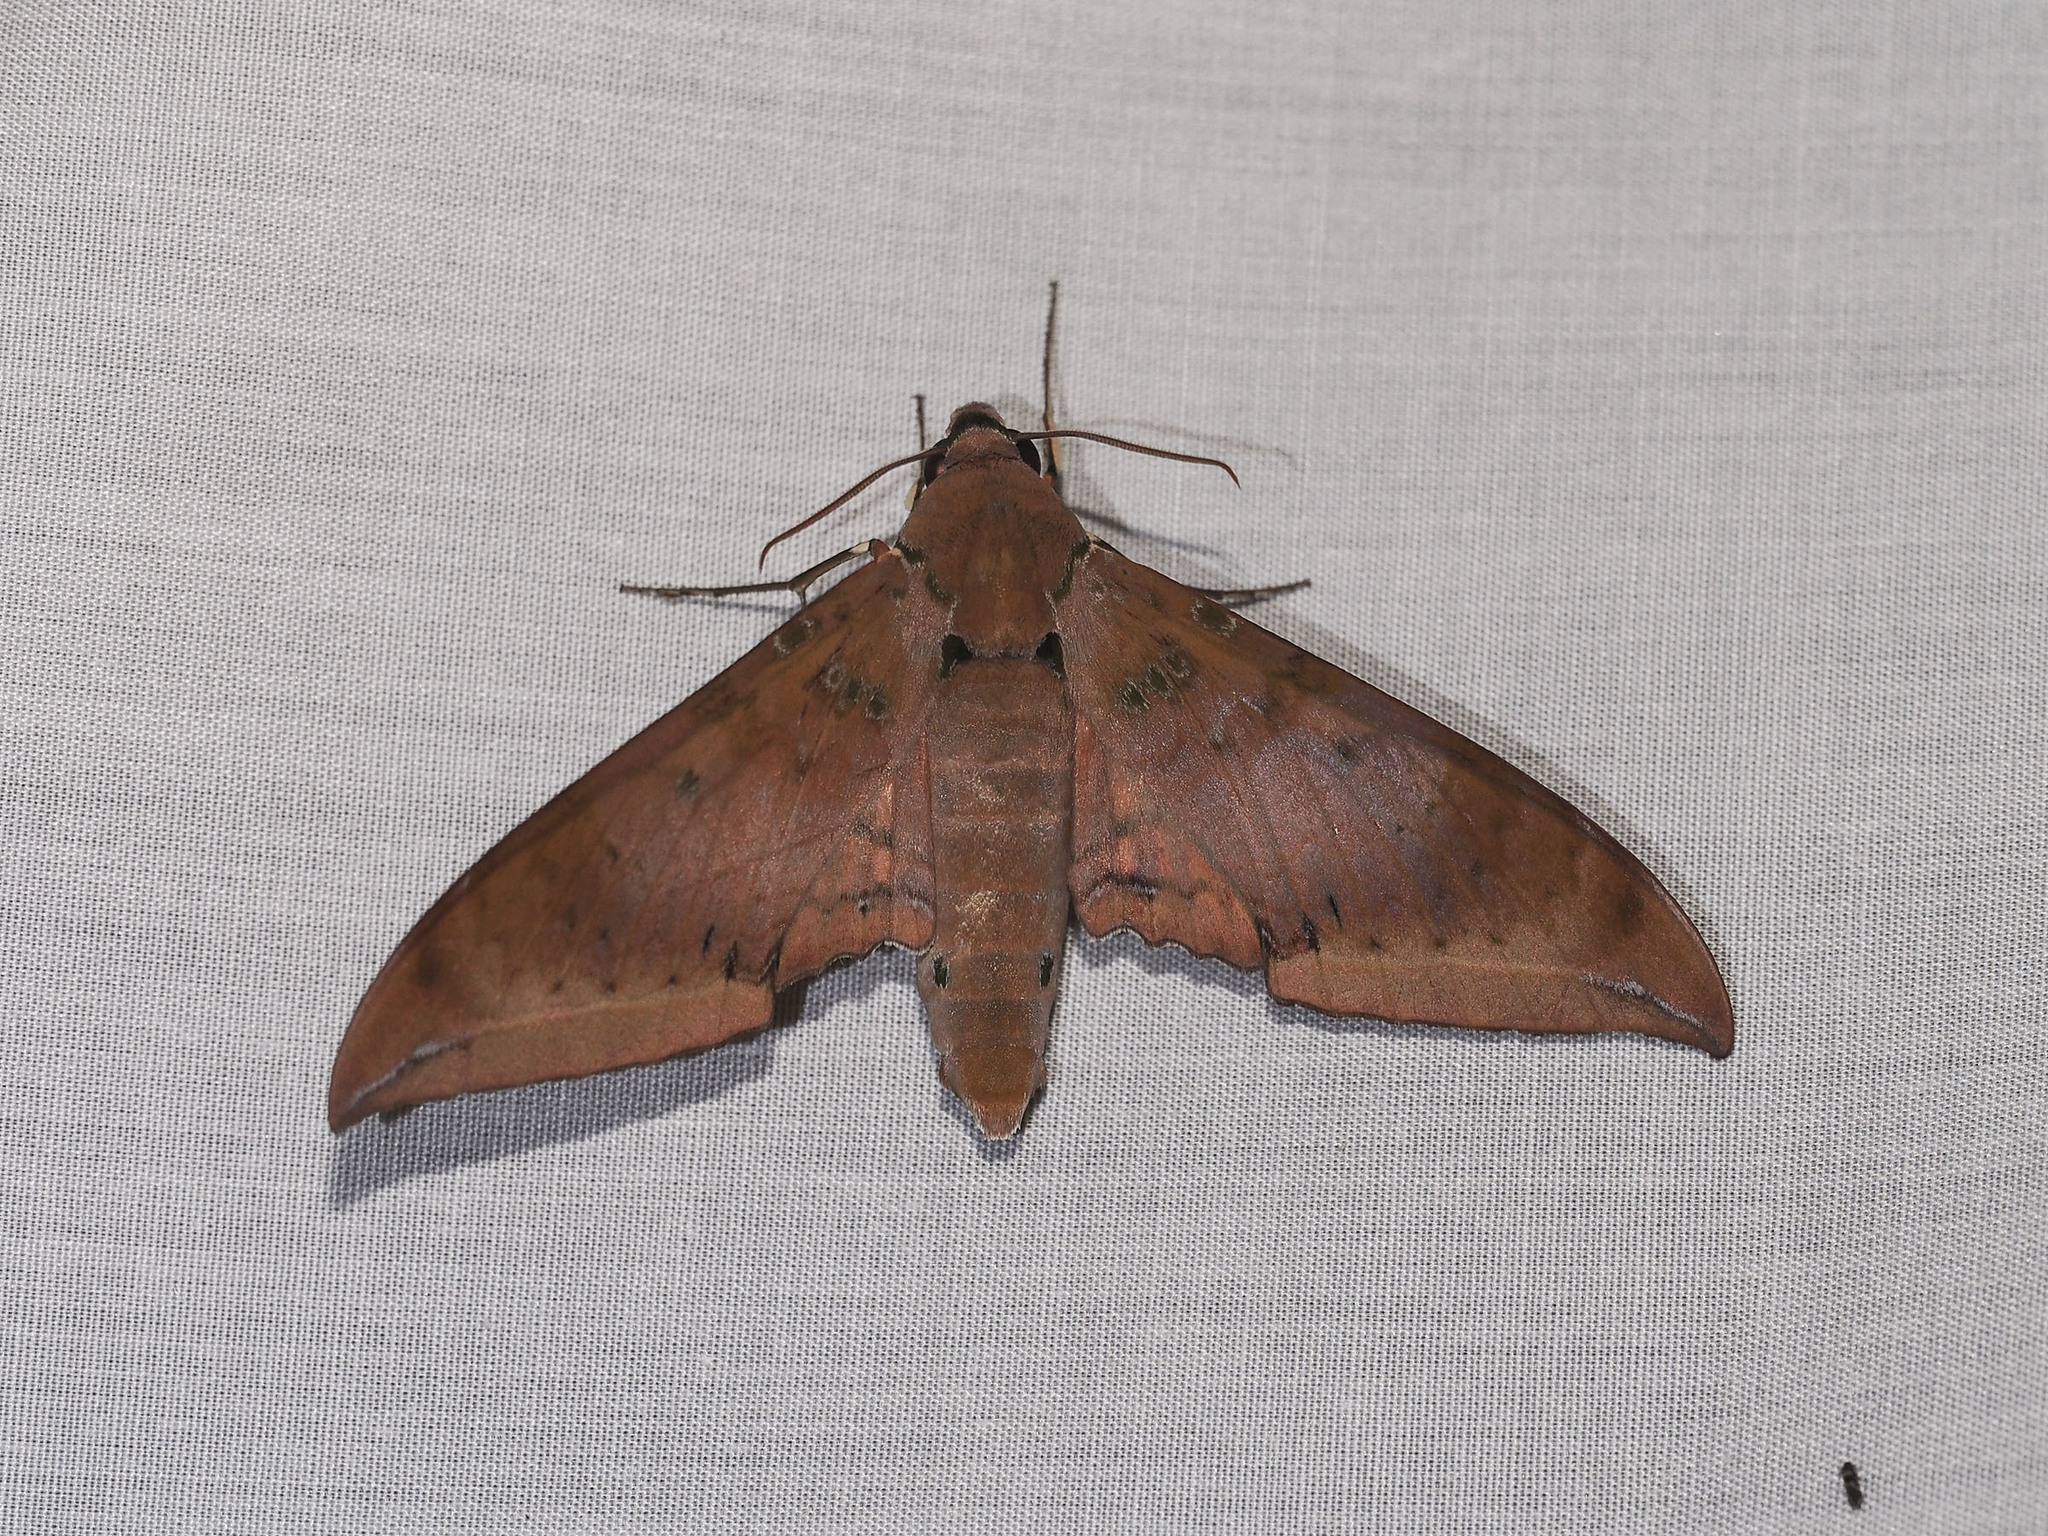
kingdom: Animalia
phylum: Arthropoda
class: Insecta
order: Lepidoptera
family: Sphingidae
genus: Ambulyx
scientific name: Ambulyx moorei
